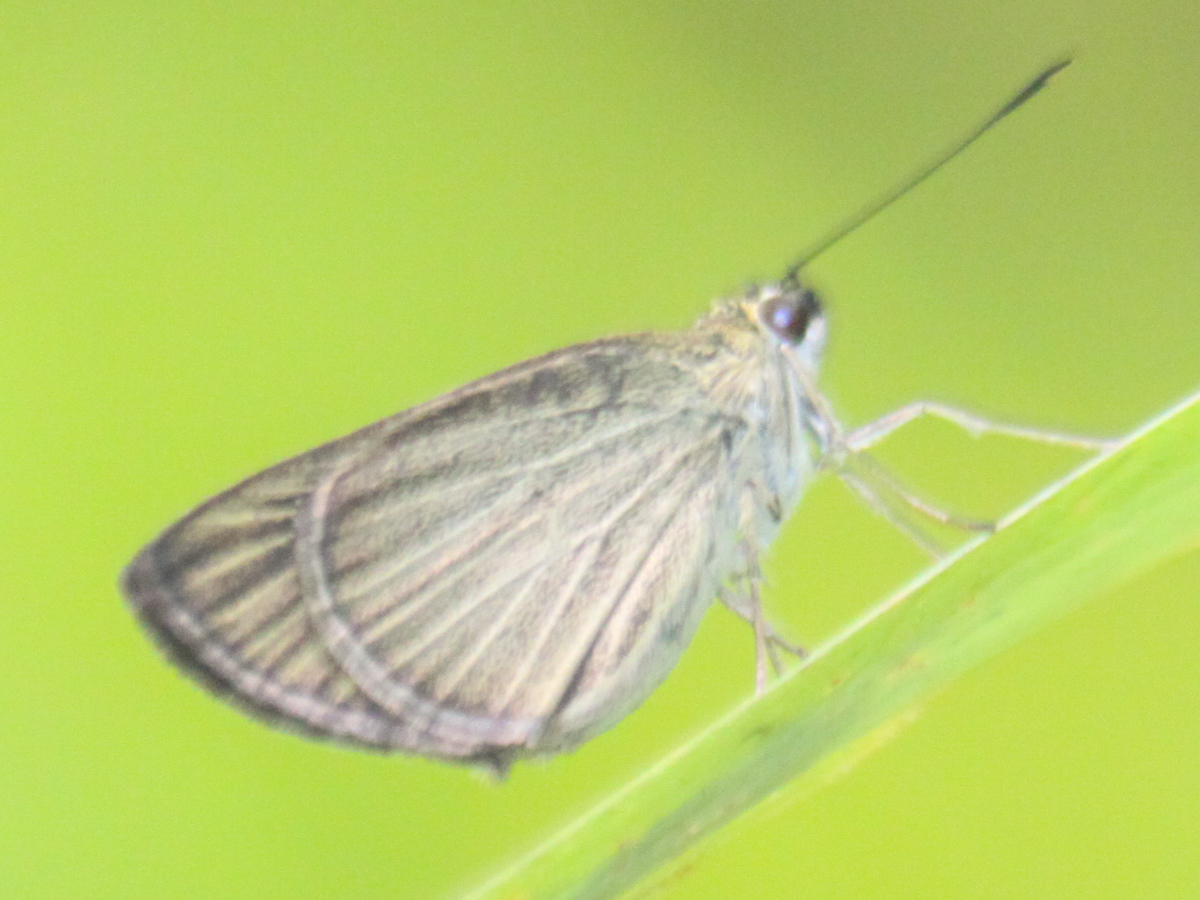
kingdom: Animalia
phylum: Arthropoda
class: Insecta
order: Lepidoptera
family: Hesperiidae
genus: Suada
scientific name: Suada swerga
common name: Grass bob
